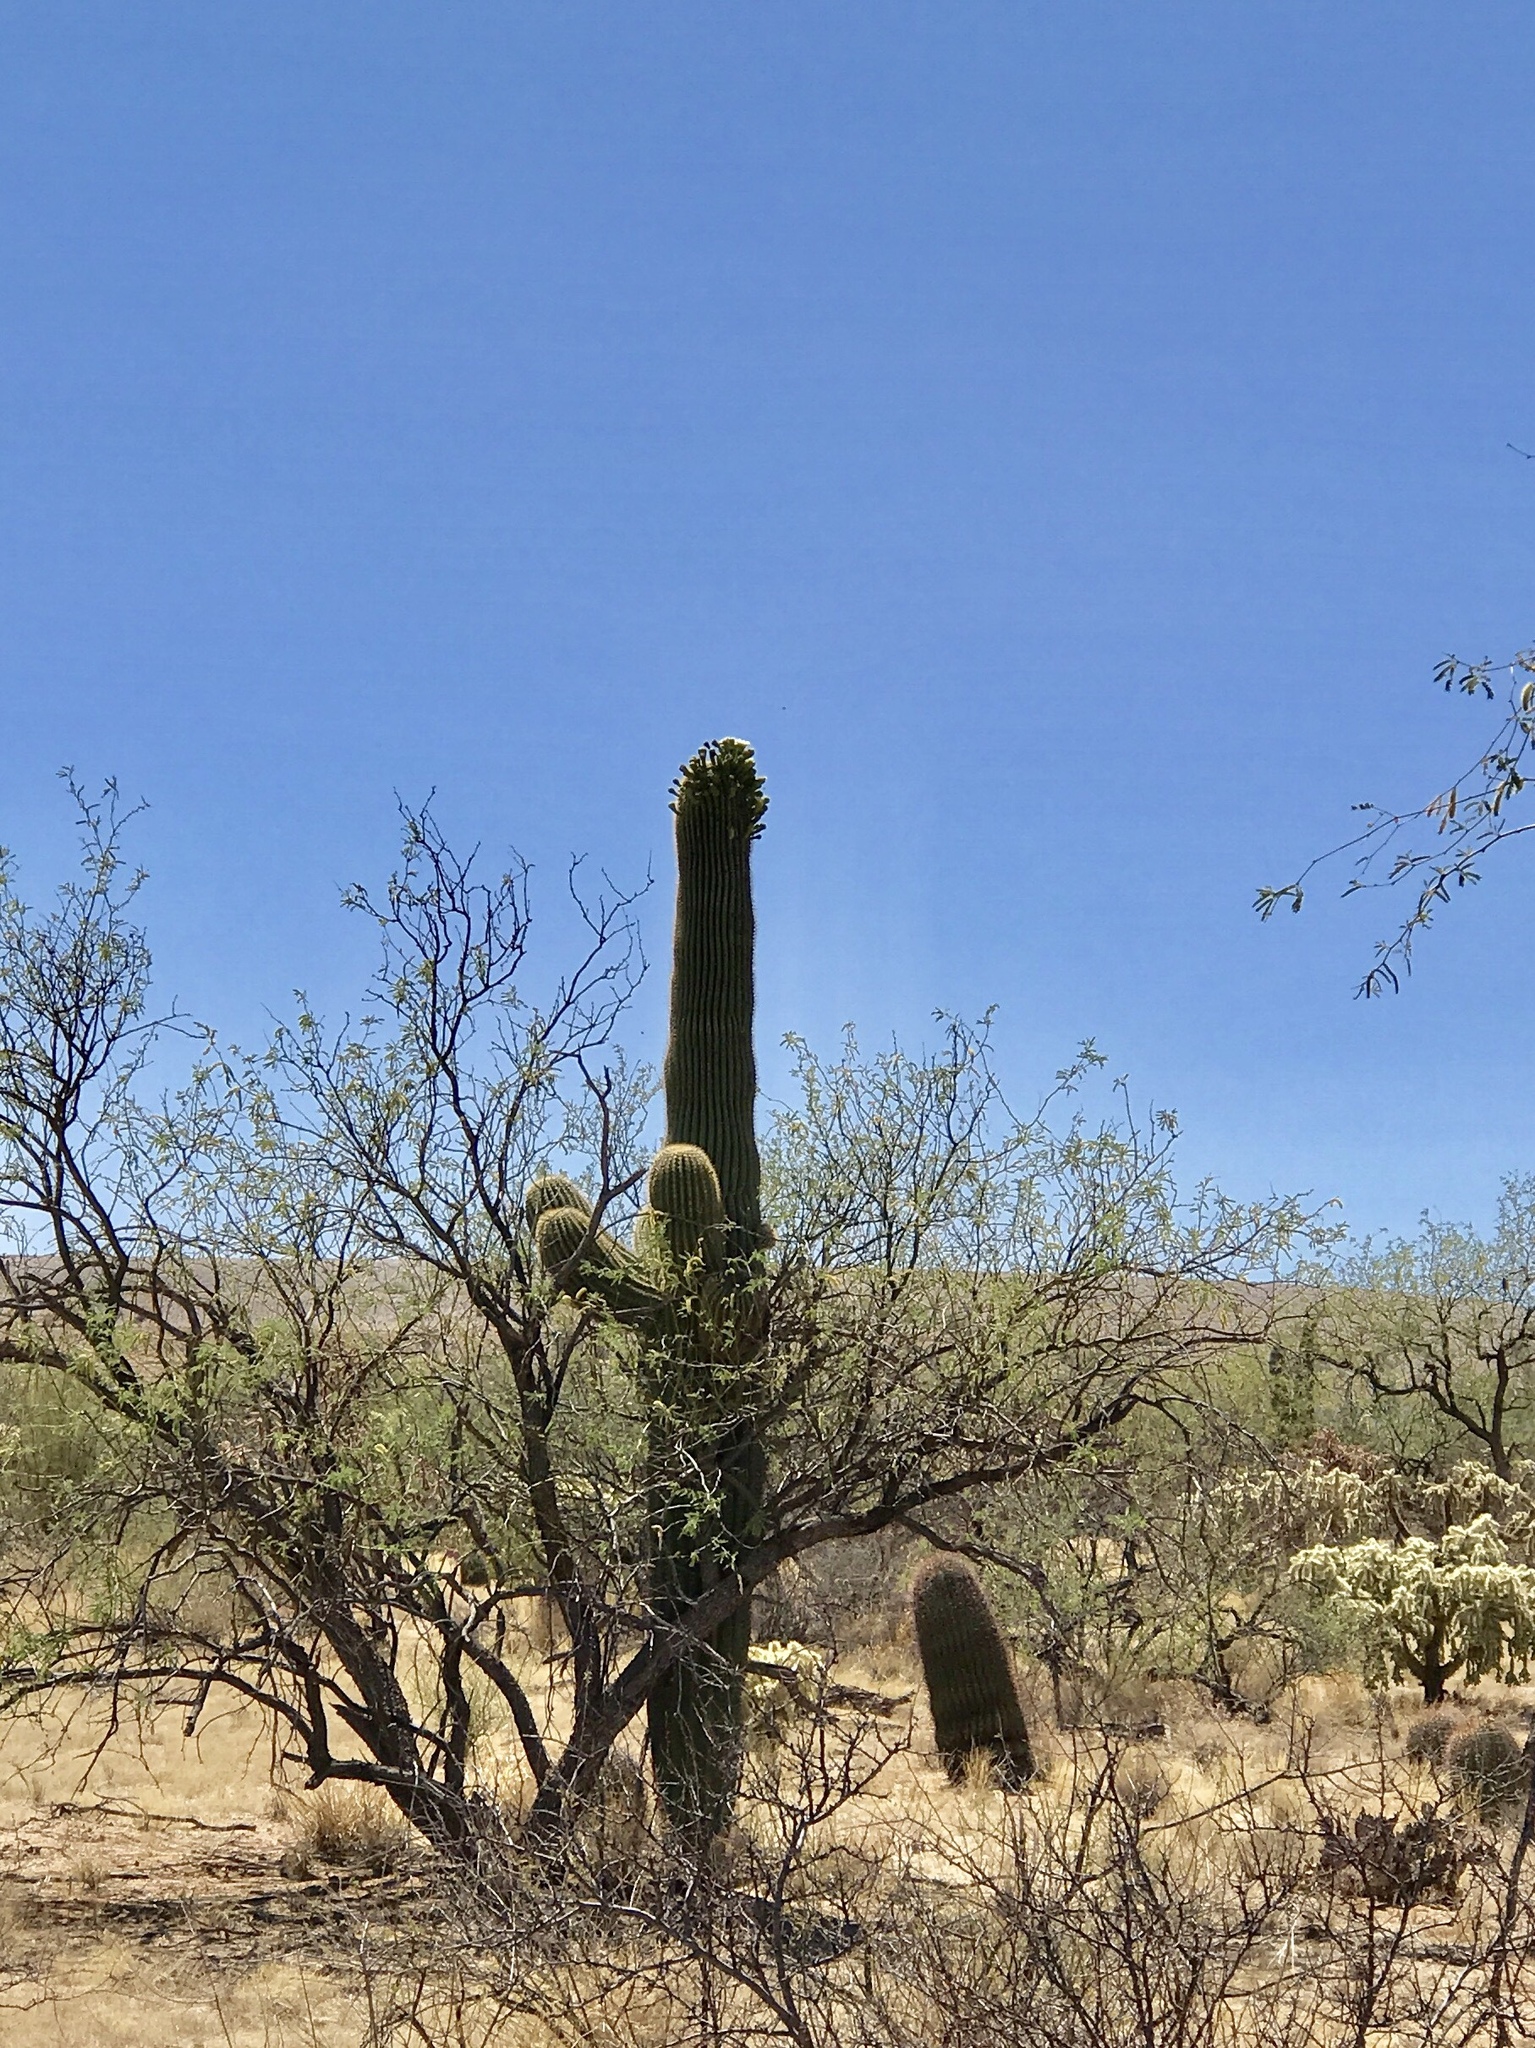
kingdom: Plantae
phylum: Tracheophyta
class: Magnoliopsida
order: Caryophyllales
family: Cactaceae
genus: Carnegiea
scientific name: Carnegiea gigantea
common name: Saguaro
